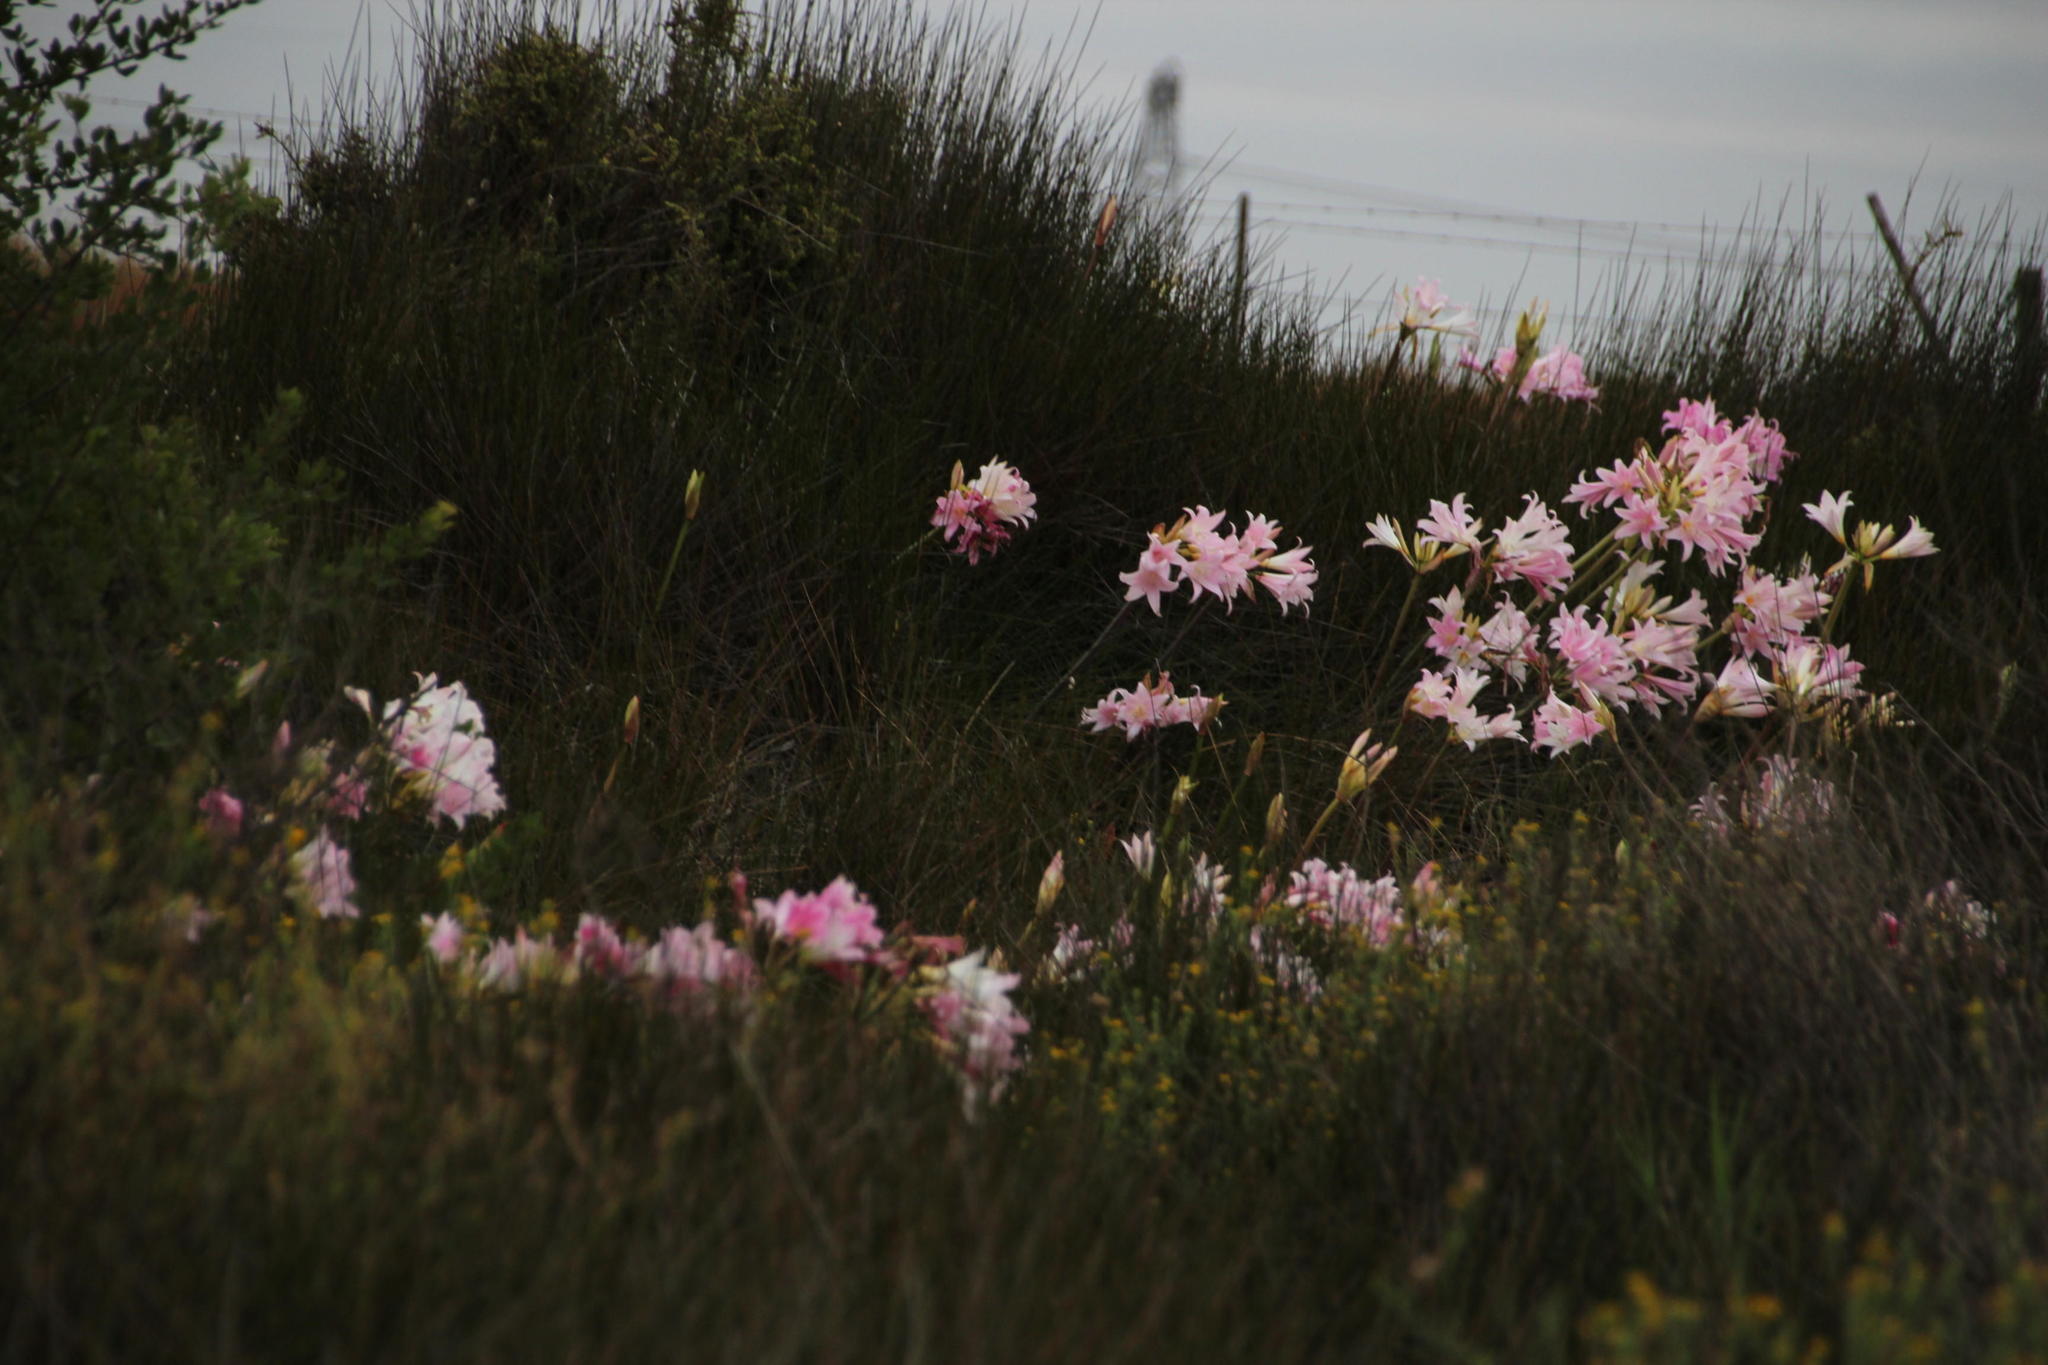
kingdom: Plantae
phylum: Tracheophyta
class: Liliopsida
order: Asparagales
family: Amaryllidaceae
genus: Amaryllis
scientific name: Amaryllis belladonna
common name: Jersey lily
